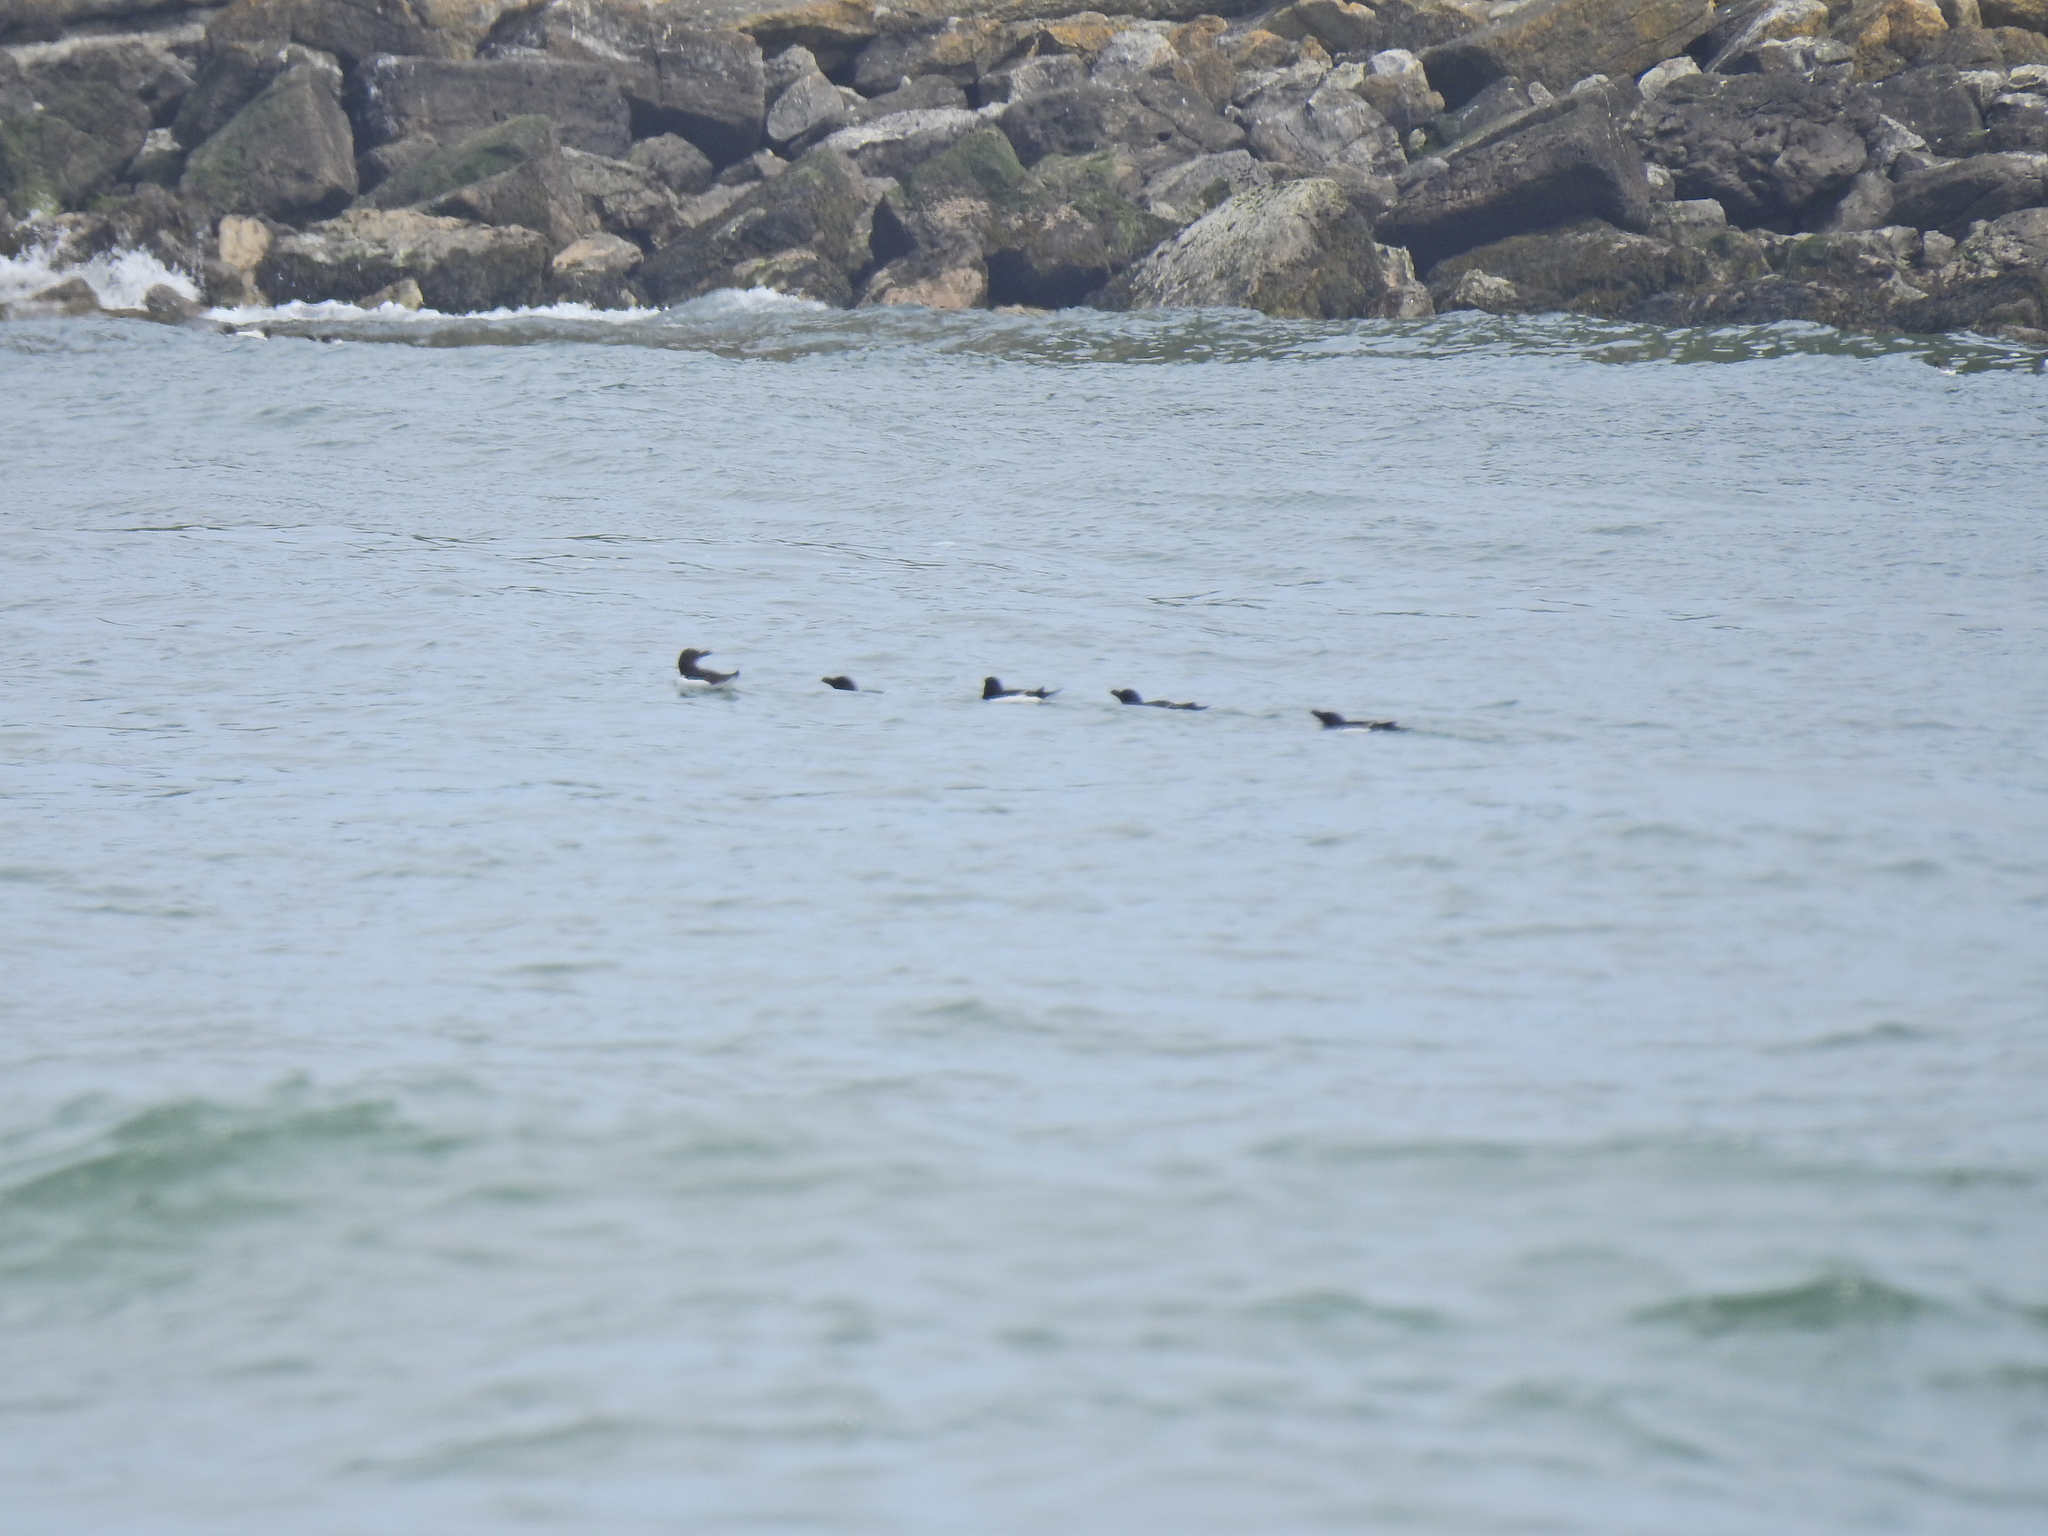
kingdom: Animalia
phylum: Chordata
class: Aves
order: Charadriiformes
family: Alcidae
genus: Alca
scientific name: Alca torda
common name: Razorbill
